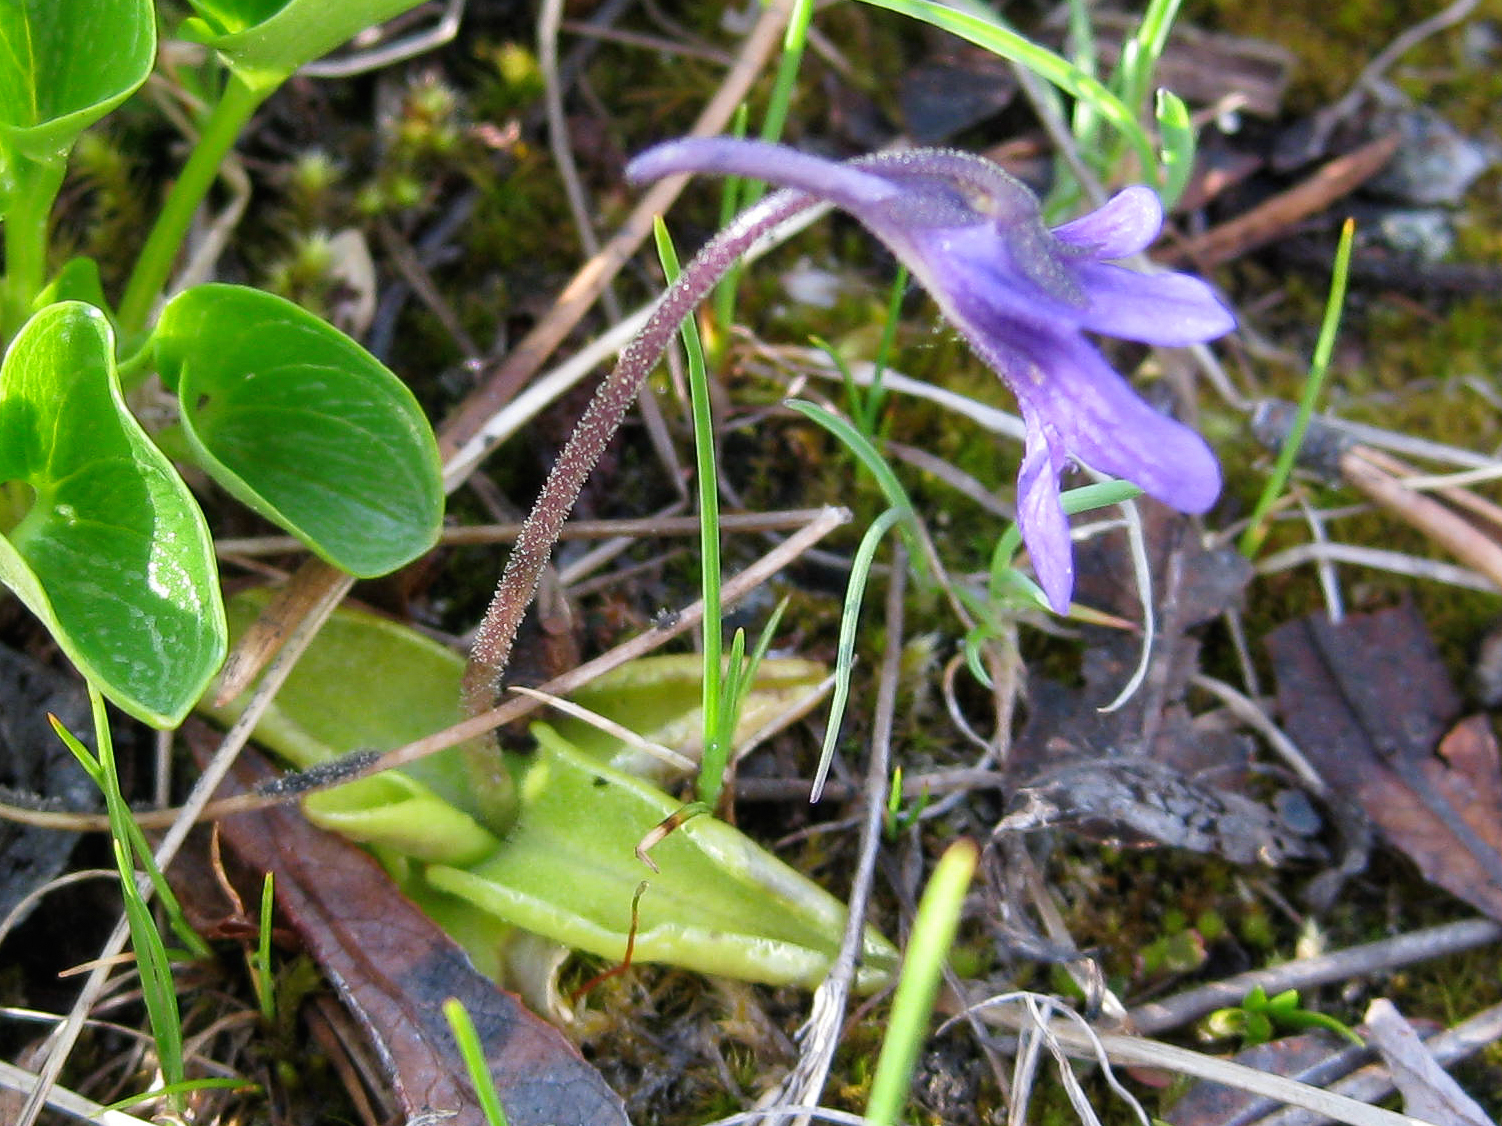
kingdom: Plantae
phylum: Tracheophyta
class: Magnoliopsida
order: Lamiales
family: Lentibulariaceae
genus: Pinguicula
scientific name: Pinguicula macroceras
